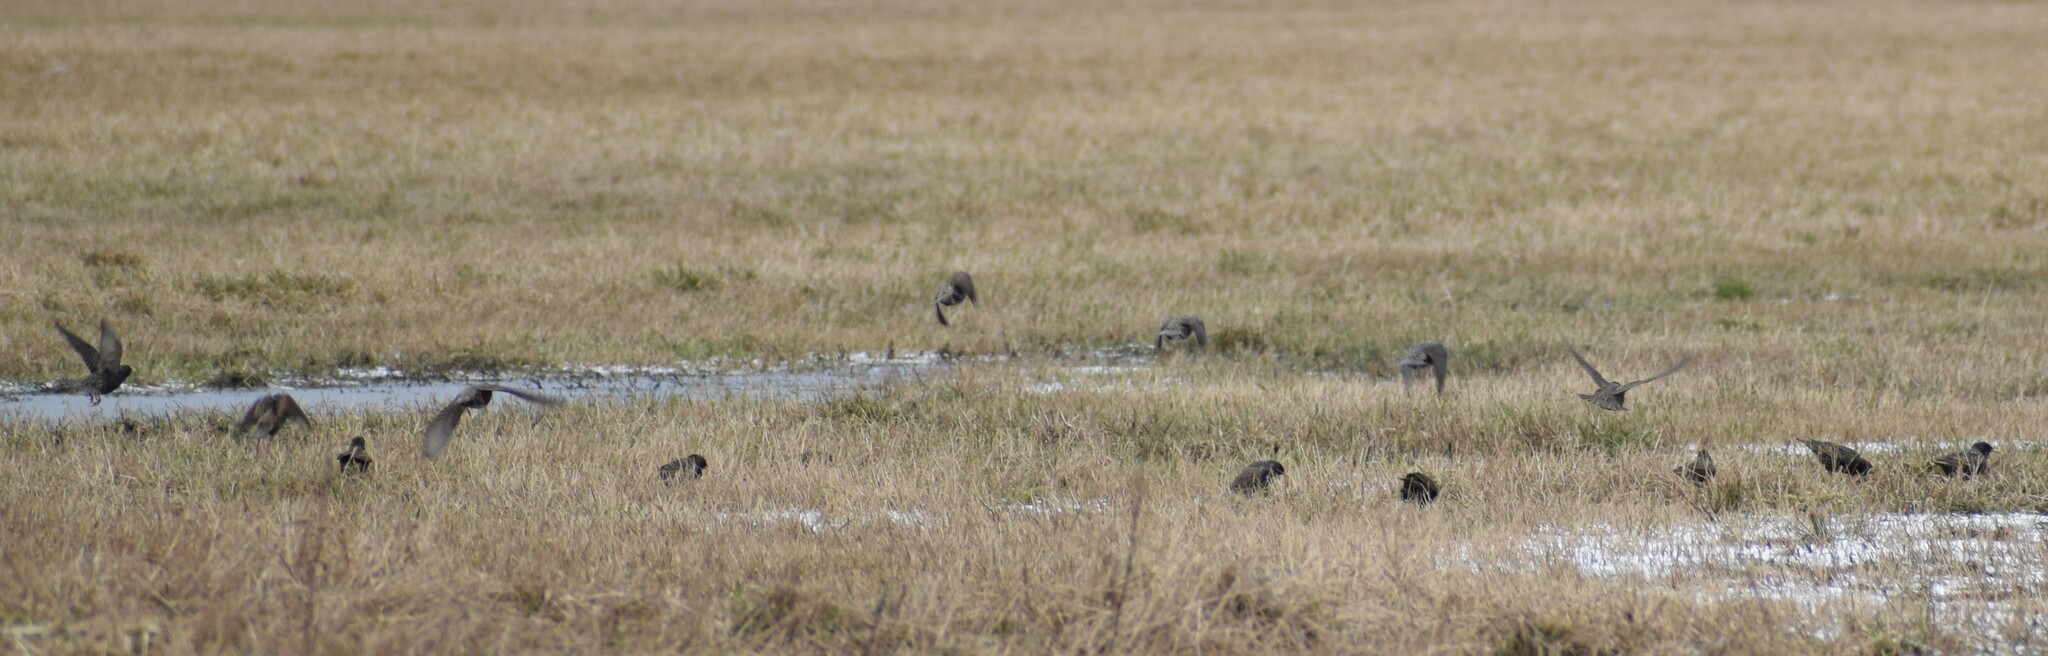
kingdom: Animalia
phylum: Chordata
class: Aves
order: Passeriformes
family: Sturnidae
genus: Sturnus
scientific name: Sturnus vulgaris
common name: Common starling
